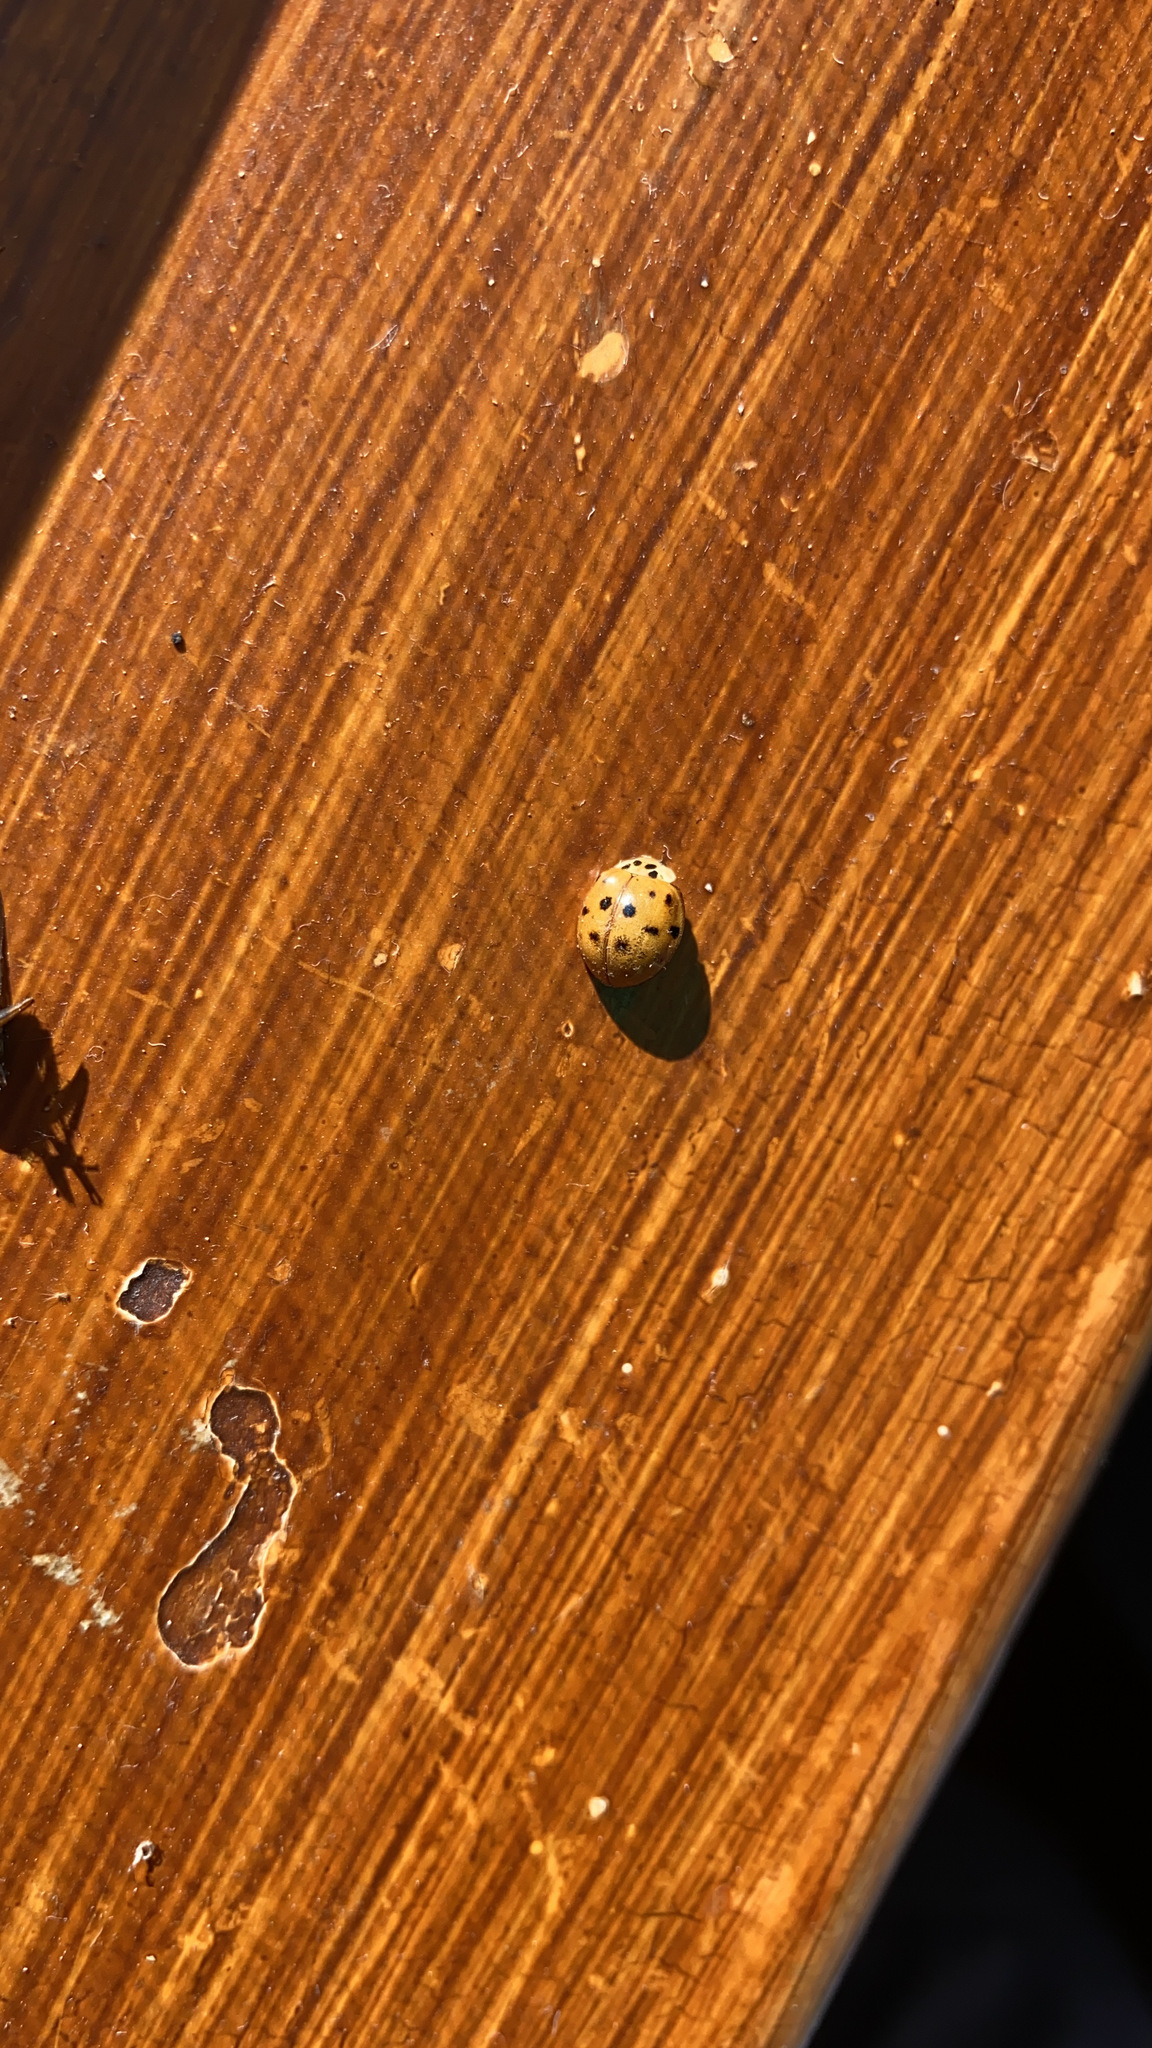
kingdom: Animalia
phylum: Arthropoda
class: Insecta
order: Coleoptera
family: Coccinellidae
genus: Harmonia
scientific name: Harmonia axyridis
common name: Harlequin ladybird
